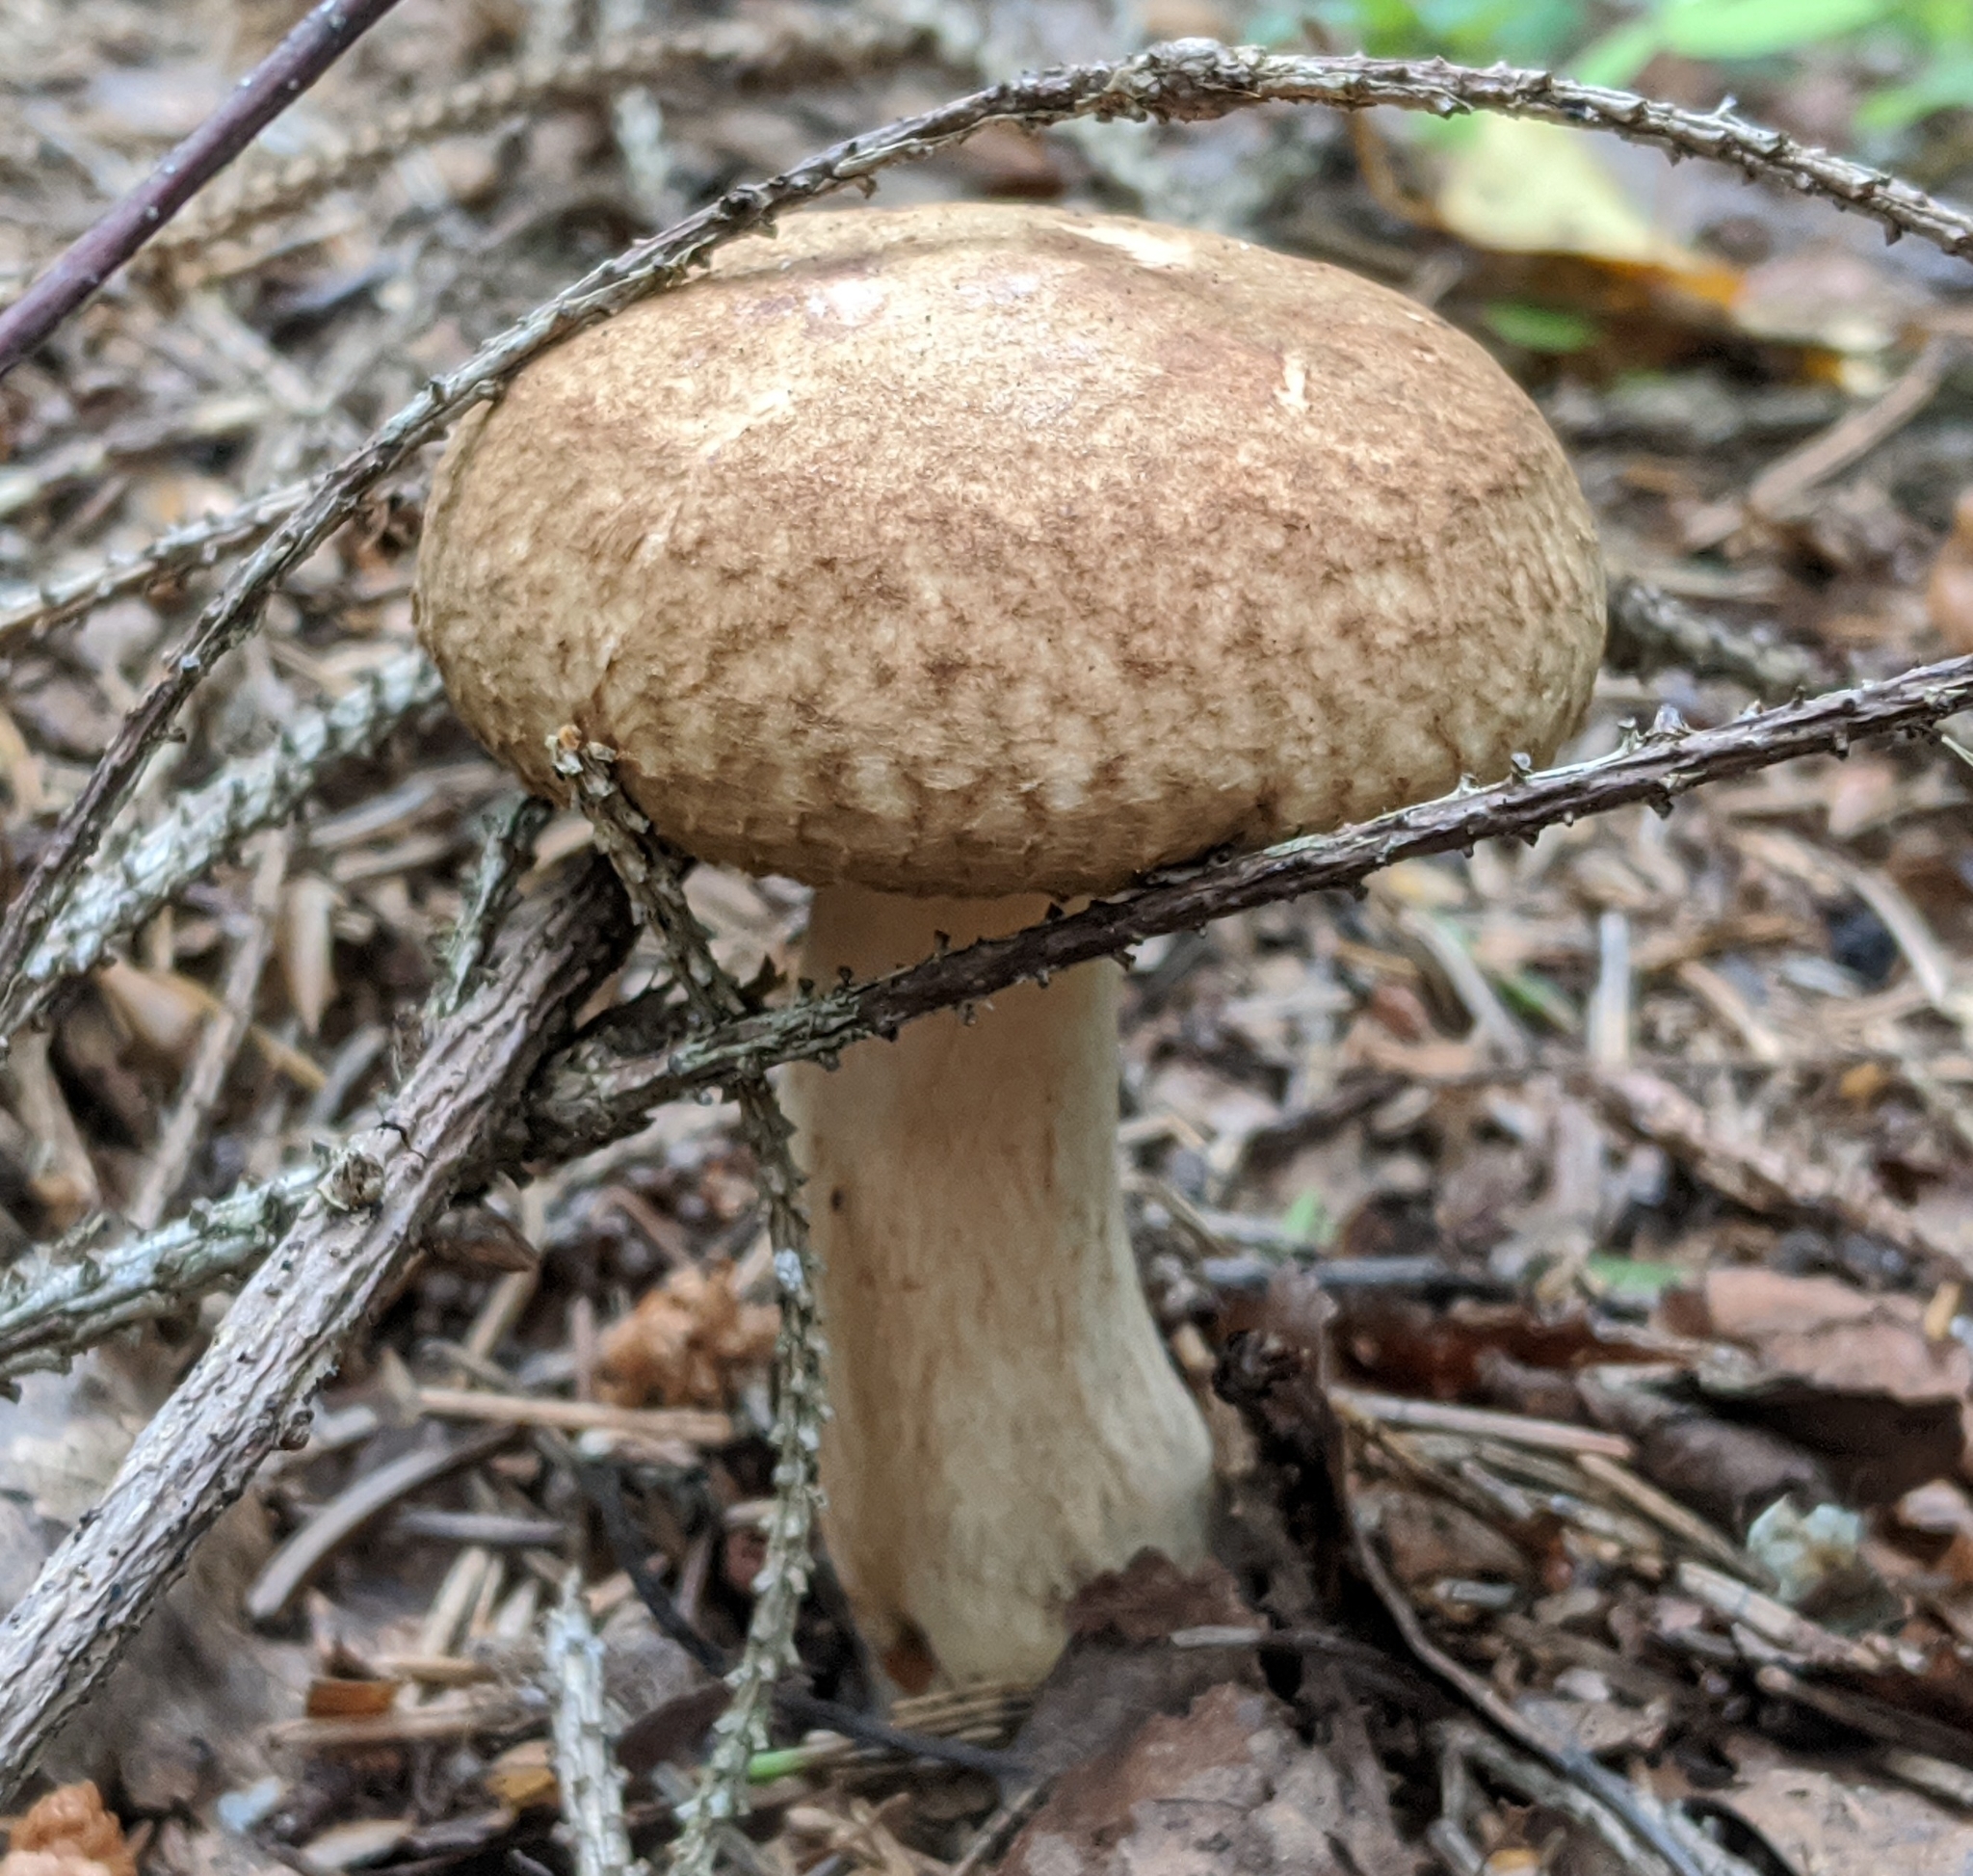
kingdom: Fungi
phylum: Basidiomycota
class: Agaricomycetes
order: Boletales
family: Paxillaceae
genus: Paxillus
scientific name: Paxillus involutus
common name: Brown roll rim
